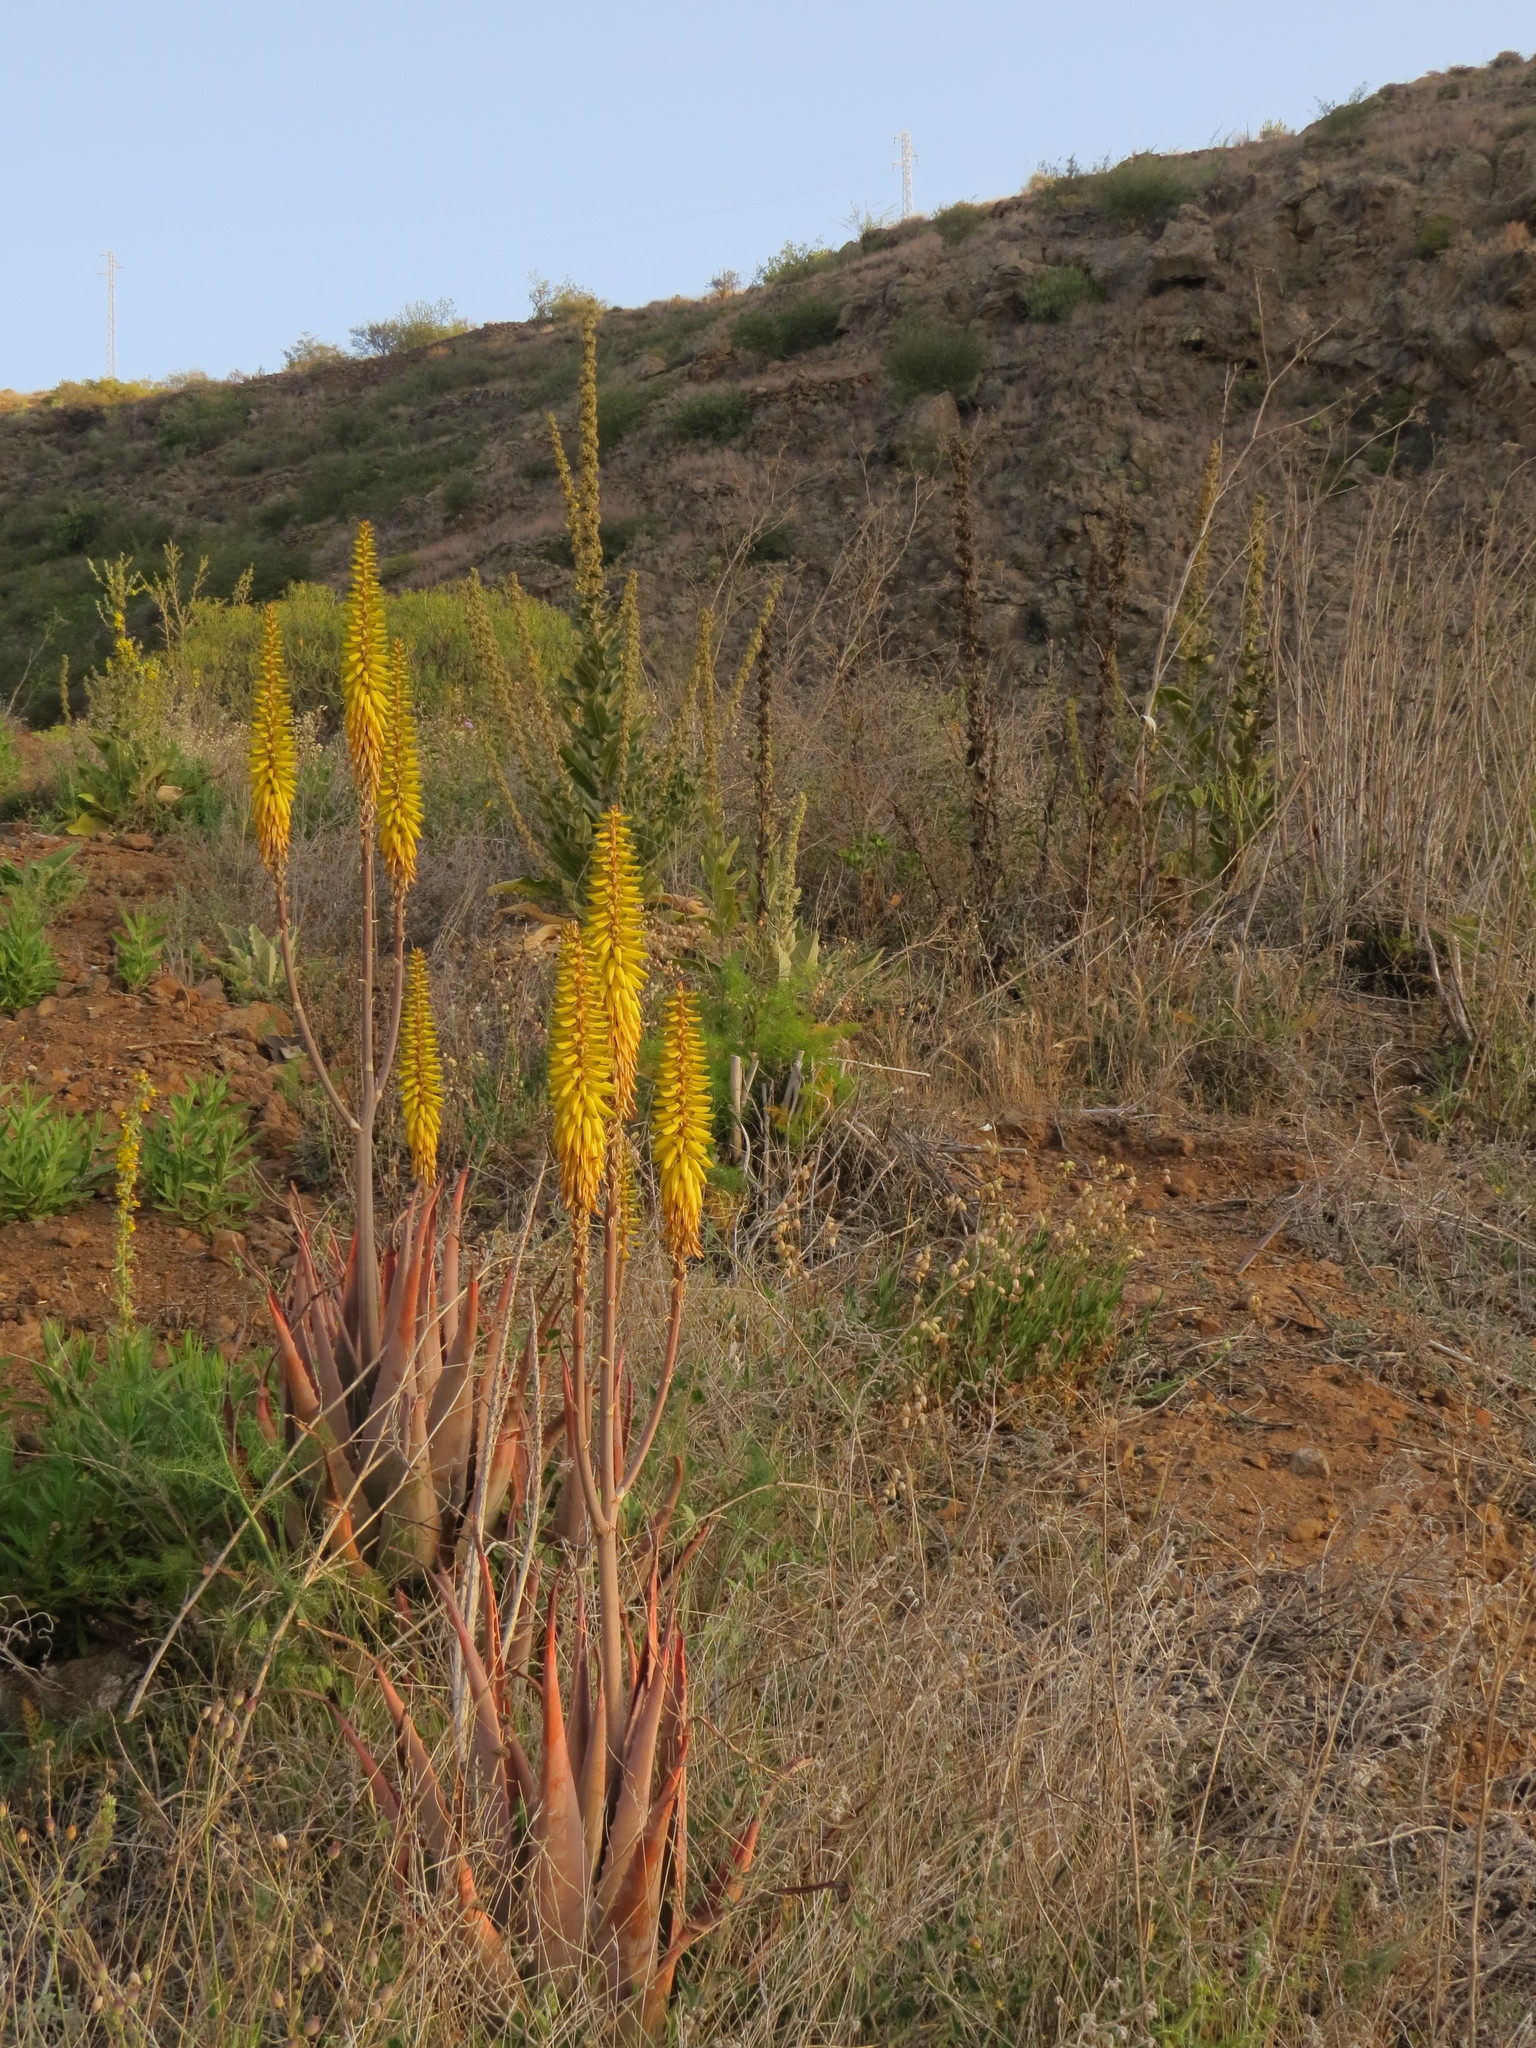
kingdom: Plantae
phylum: Tracheophyta
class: Liliopsida
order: Asparagales
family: Asphodelaceae
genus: Aloe
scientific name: Aloe vera
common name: Barbados aloe
